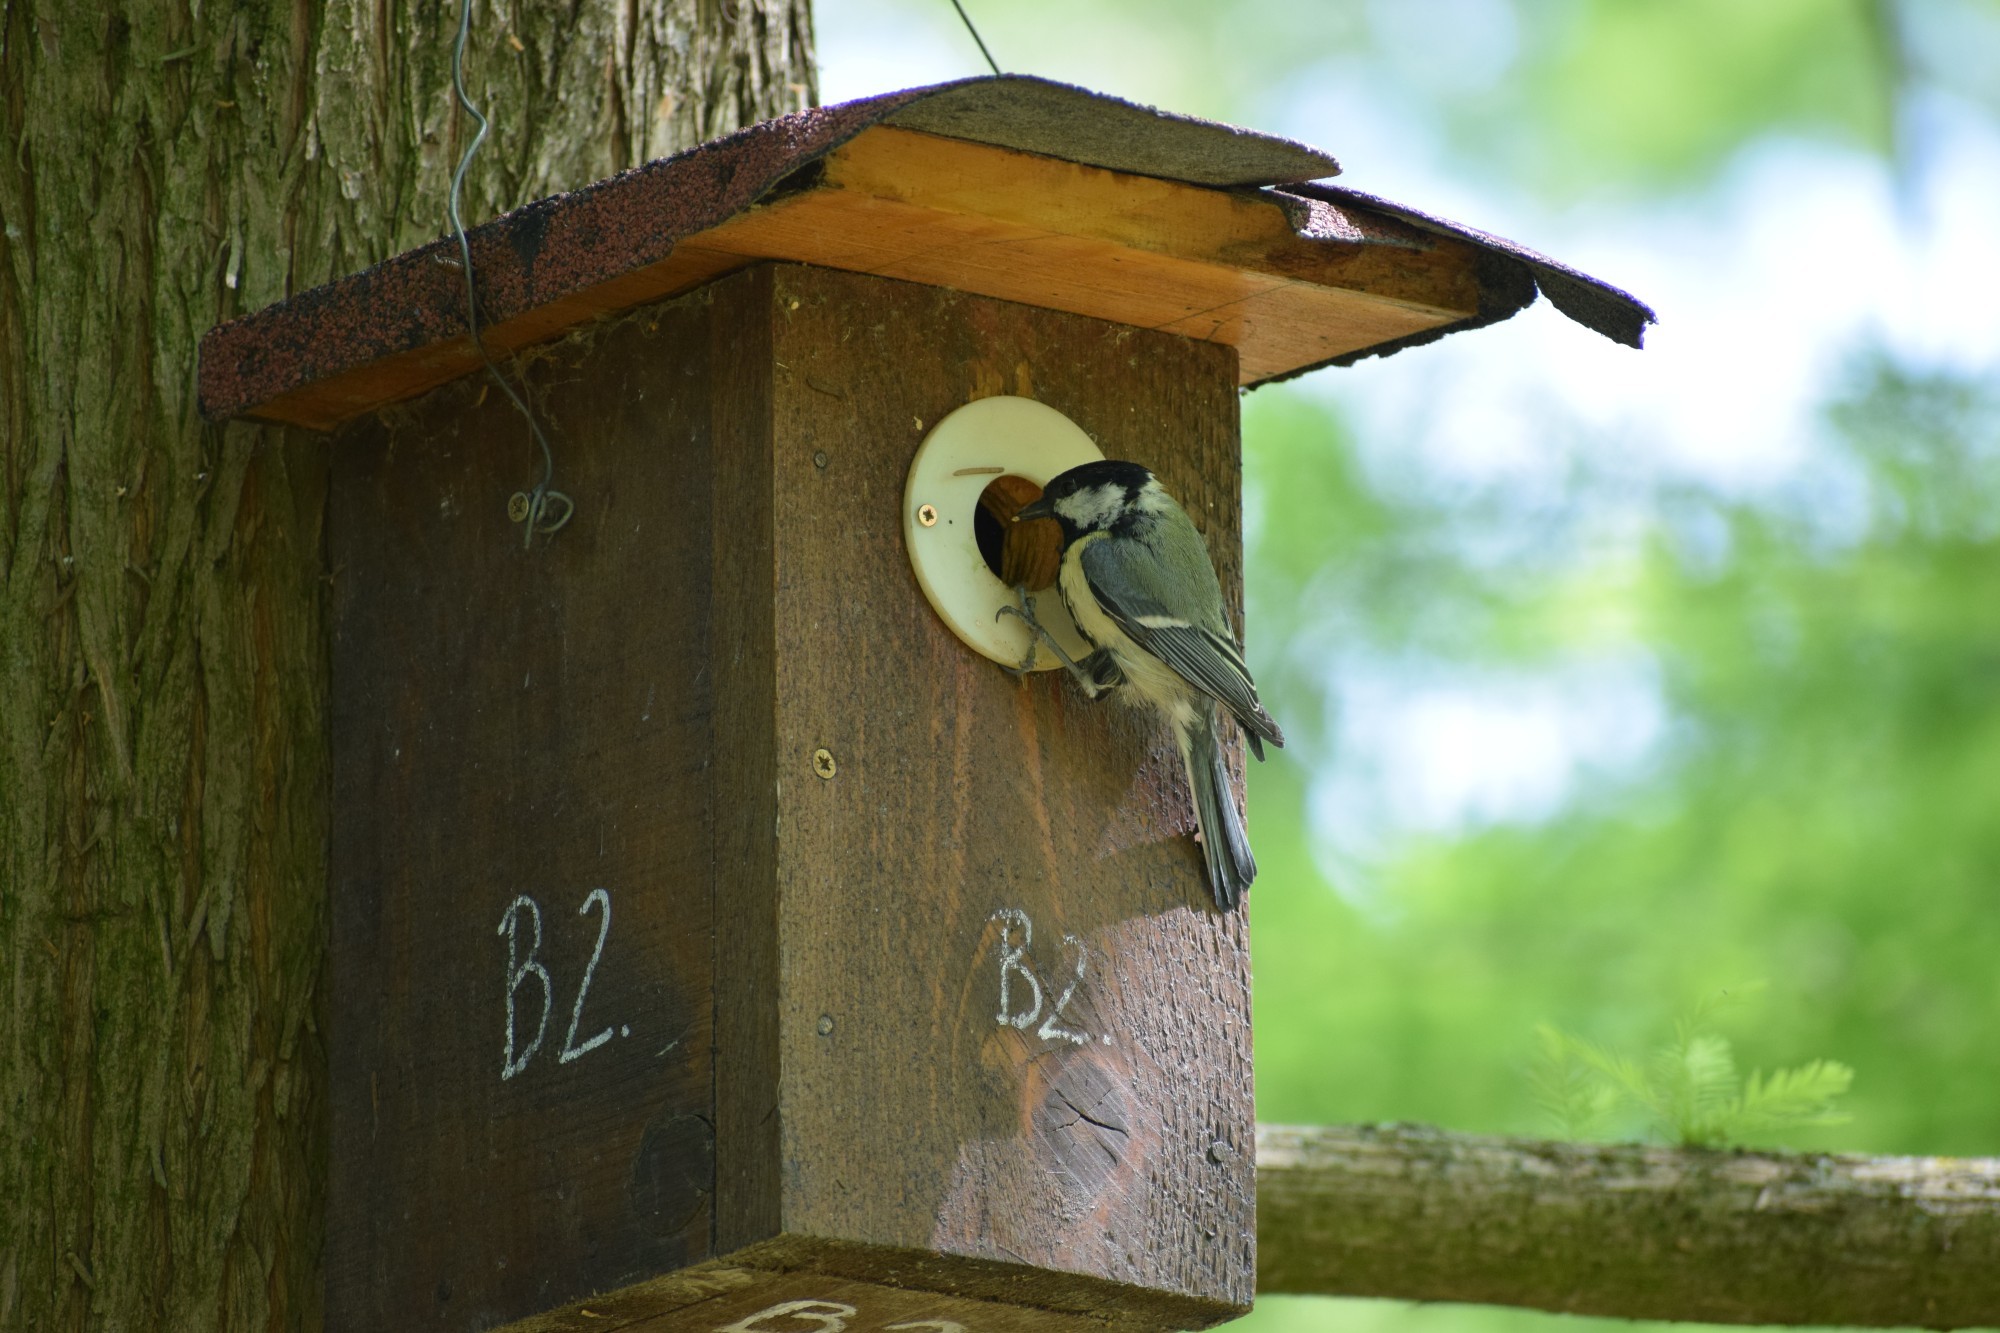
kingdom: Animalia
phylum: Chordata
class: Aves
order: Passeriformes
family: Paridae
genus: Parus
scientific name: Parus major
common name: Great tit
